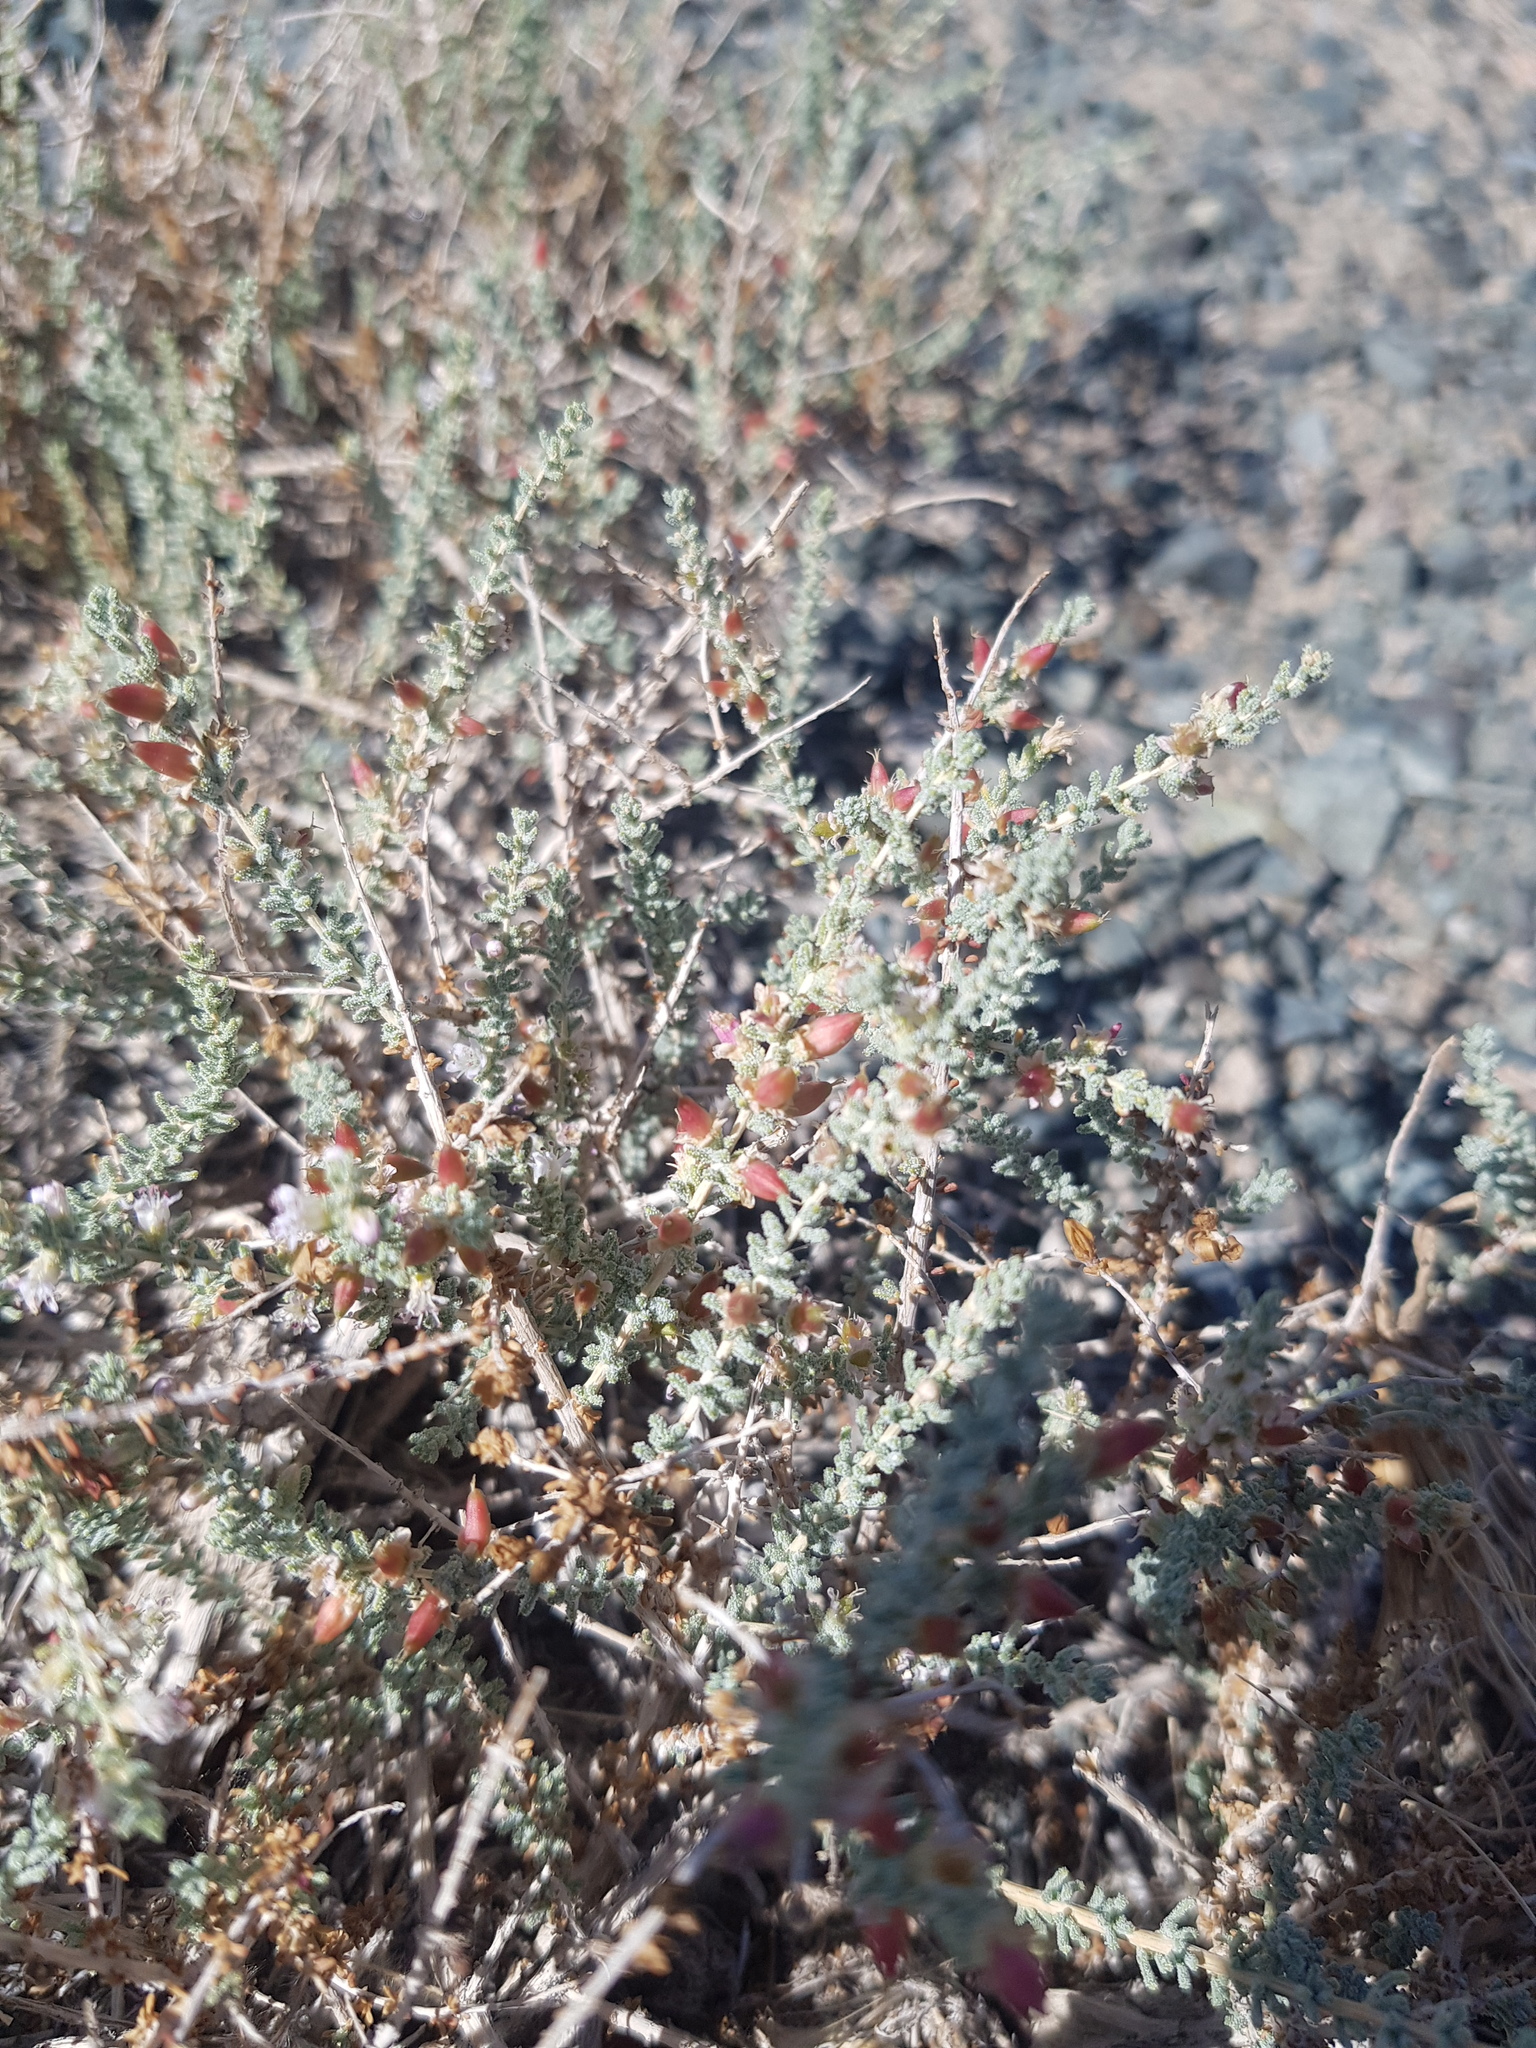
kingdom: Plantae
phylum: Tracheophyta
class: Magnoliopsida
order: Caryophyllales
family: Tamaricaceae
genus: Reaumuria
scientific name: Reaumuria songarica
